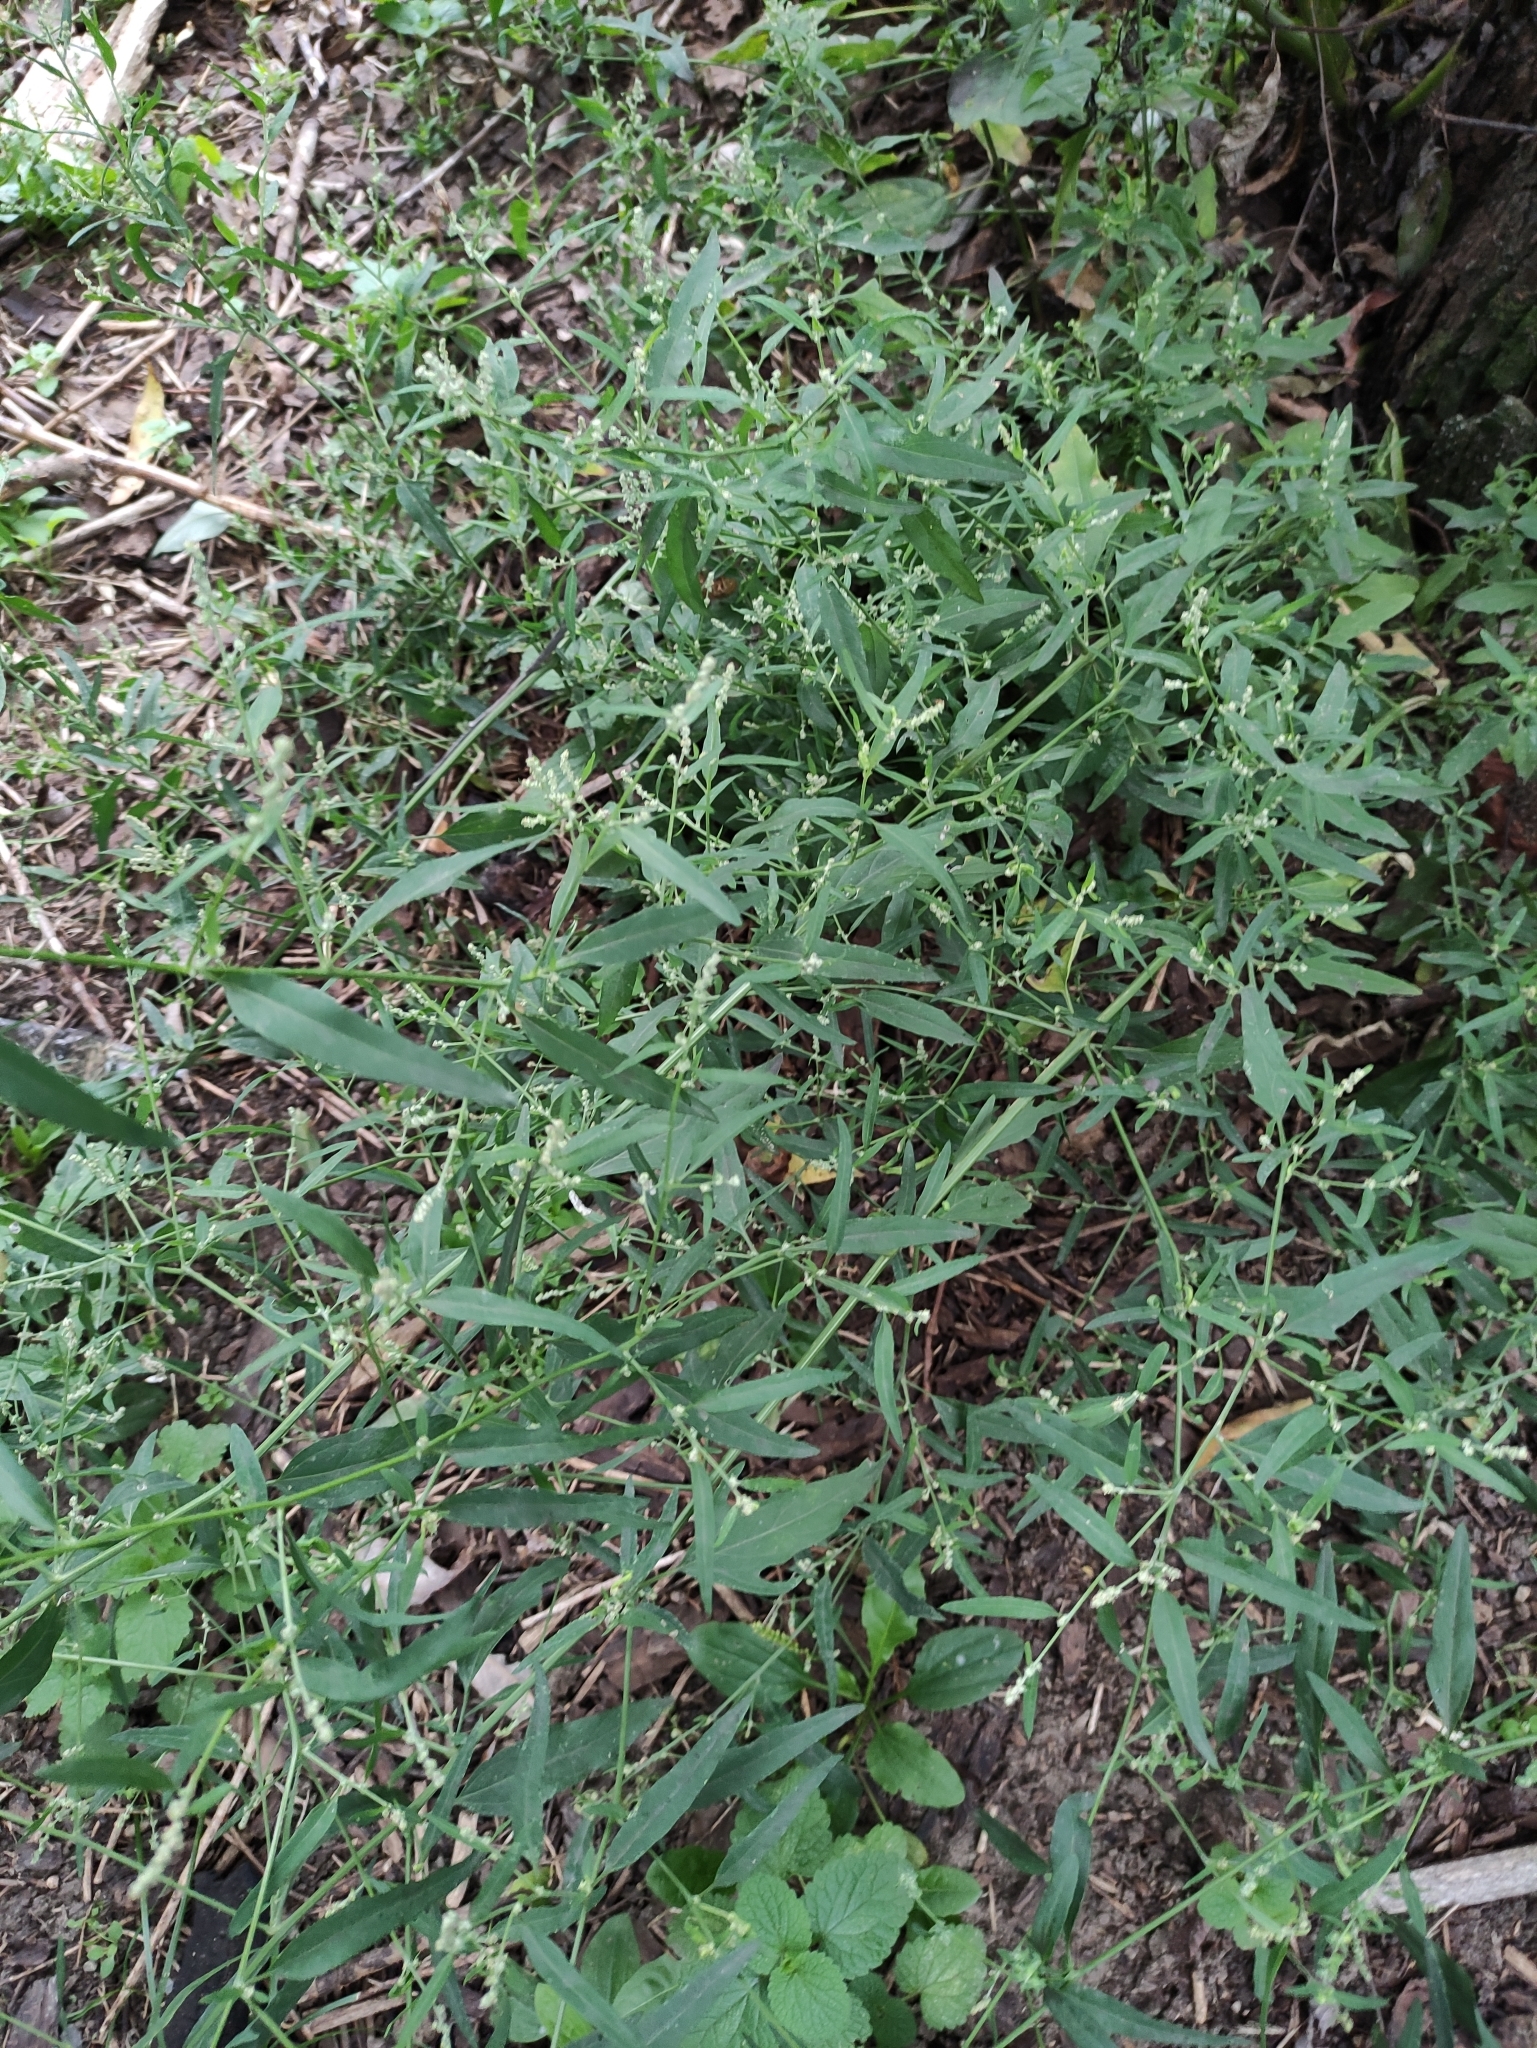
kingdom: Plantae
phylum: Tracheophyta
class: Magnoliopsida
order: Caryophyllales
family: Amaranthaceae
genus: Atriplex
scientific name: Atriplex patula
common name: Common orache
